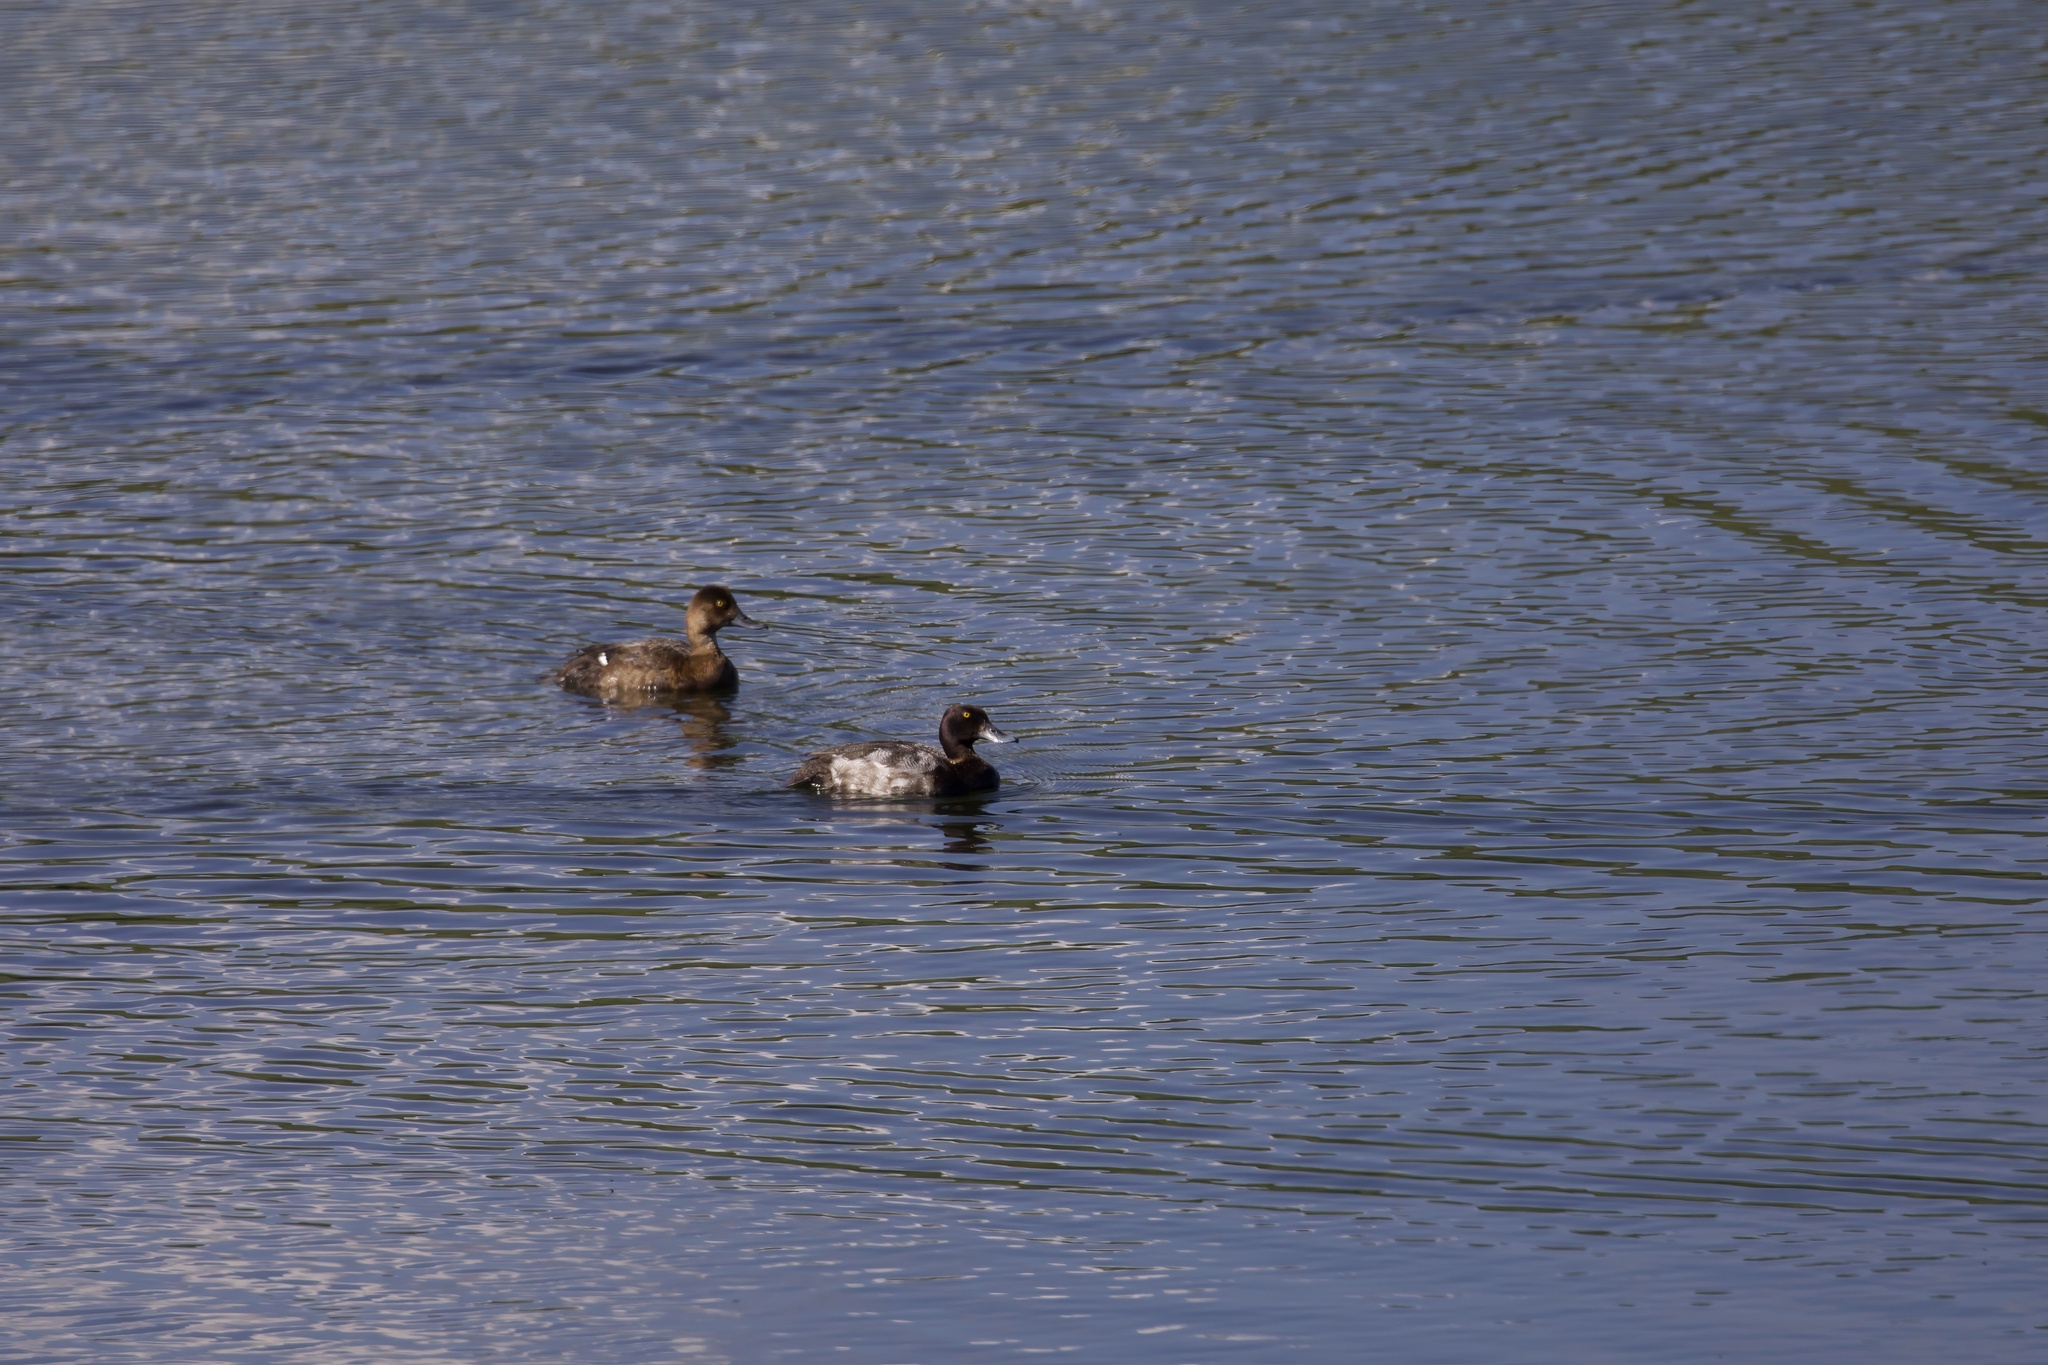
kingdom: Animalia
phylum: Chordata
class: Aves
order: Anseriformes
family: Anatidae
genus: Aythya
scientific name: Aythya affinis
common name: Lesser scaup
